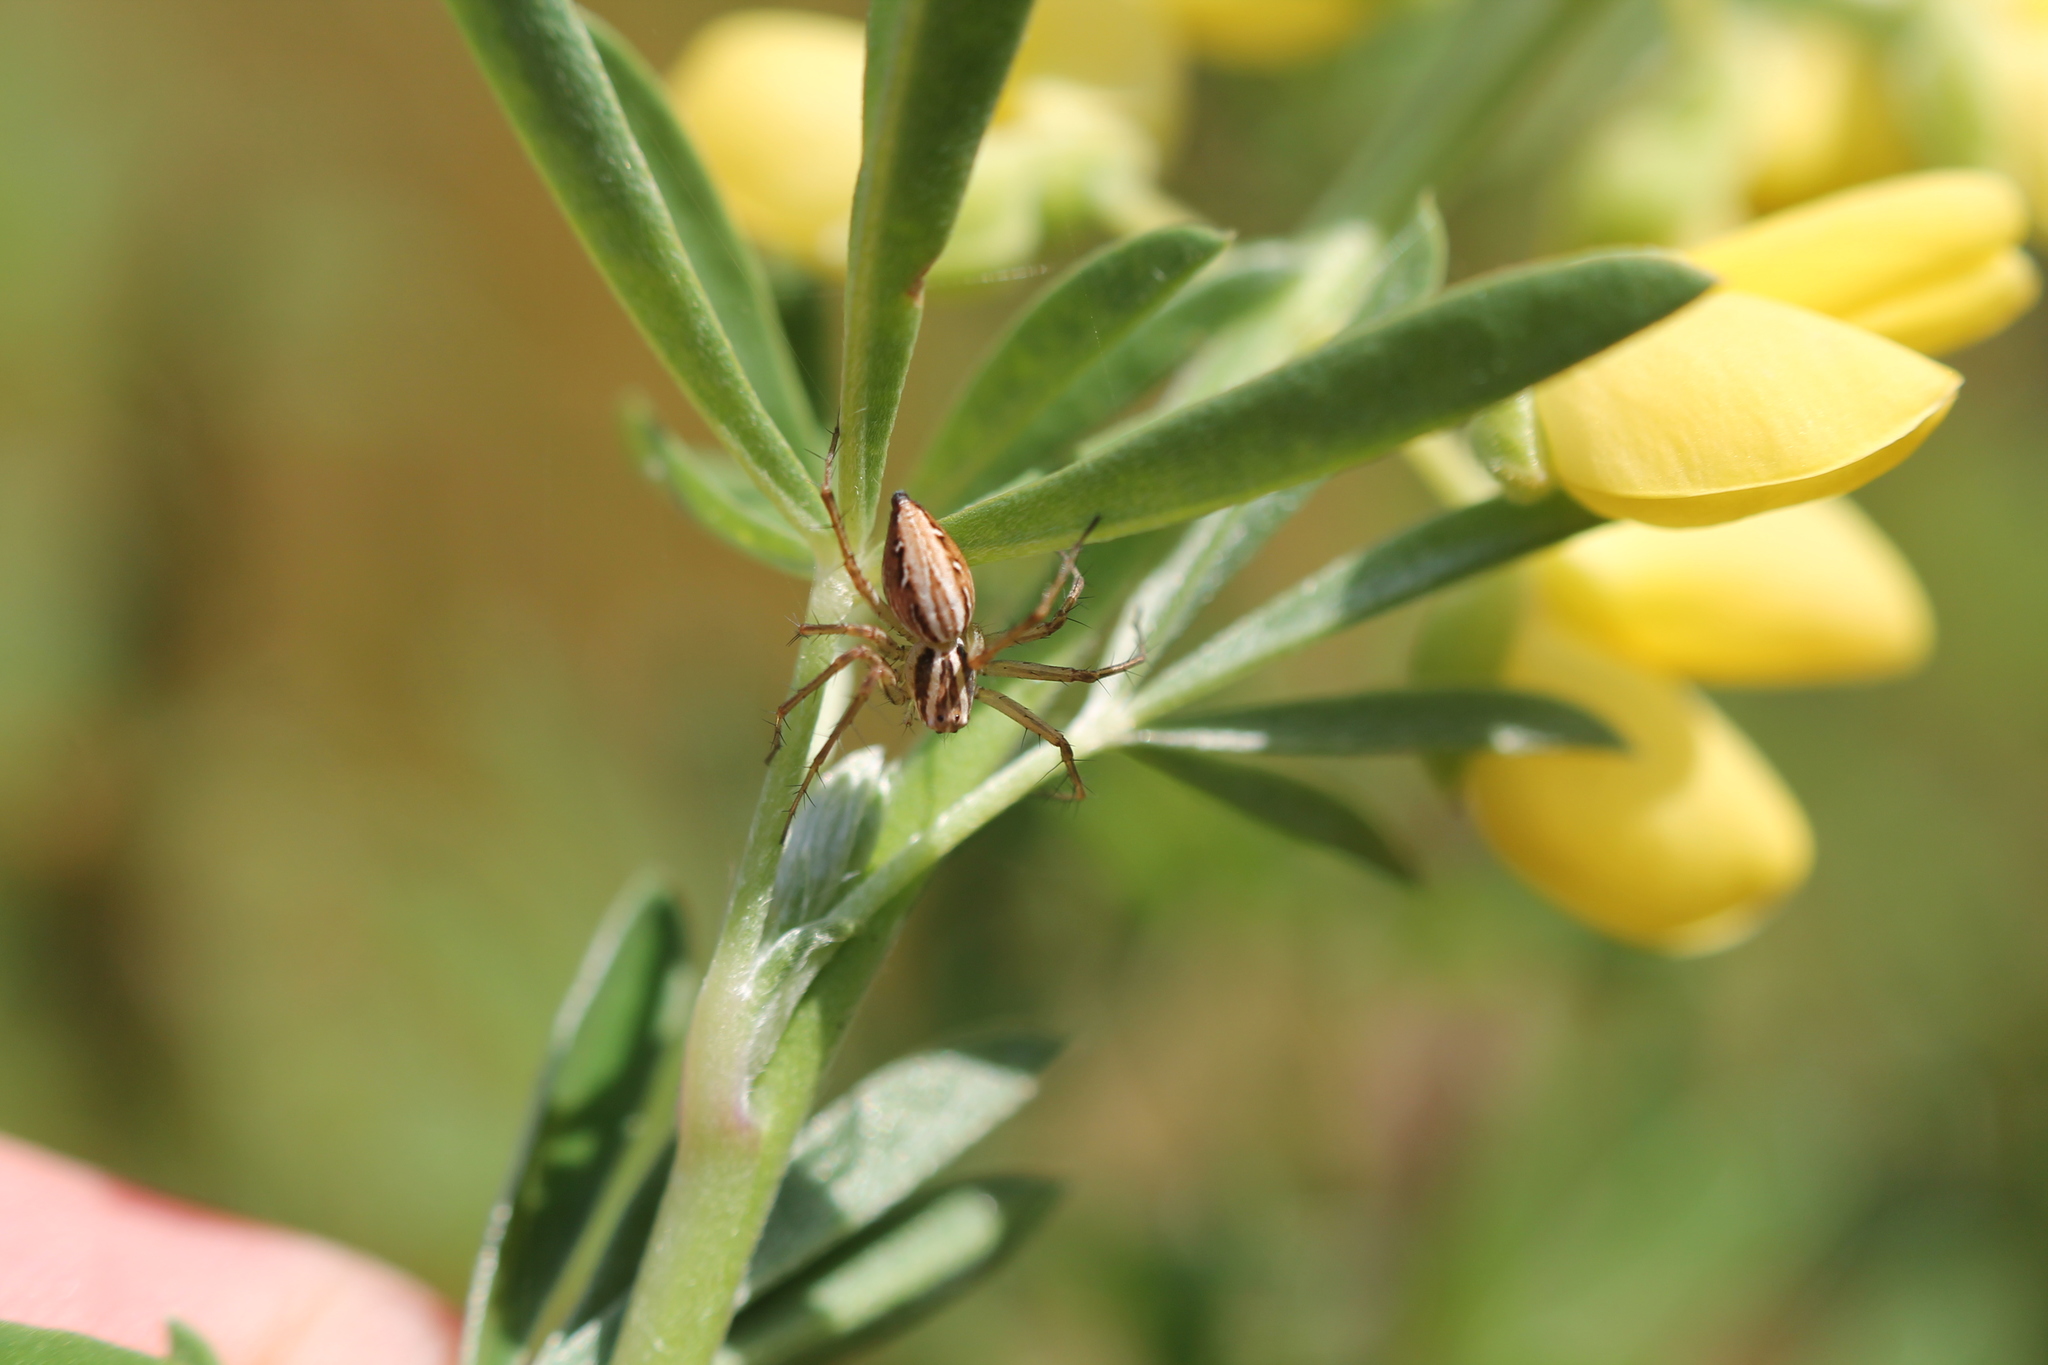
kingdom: Animalia
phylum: Arthropoda
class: Arachnida
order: Araneae
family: Oxyopidae
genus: Oxyopes
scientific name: Oxyopes gracilipes
